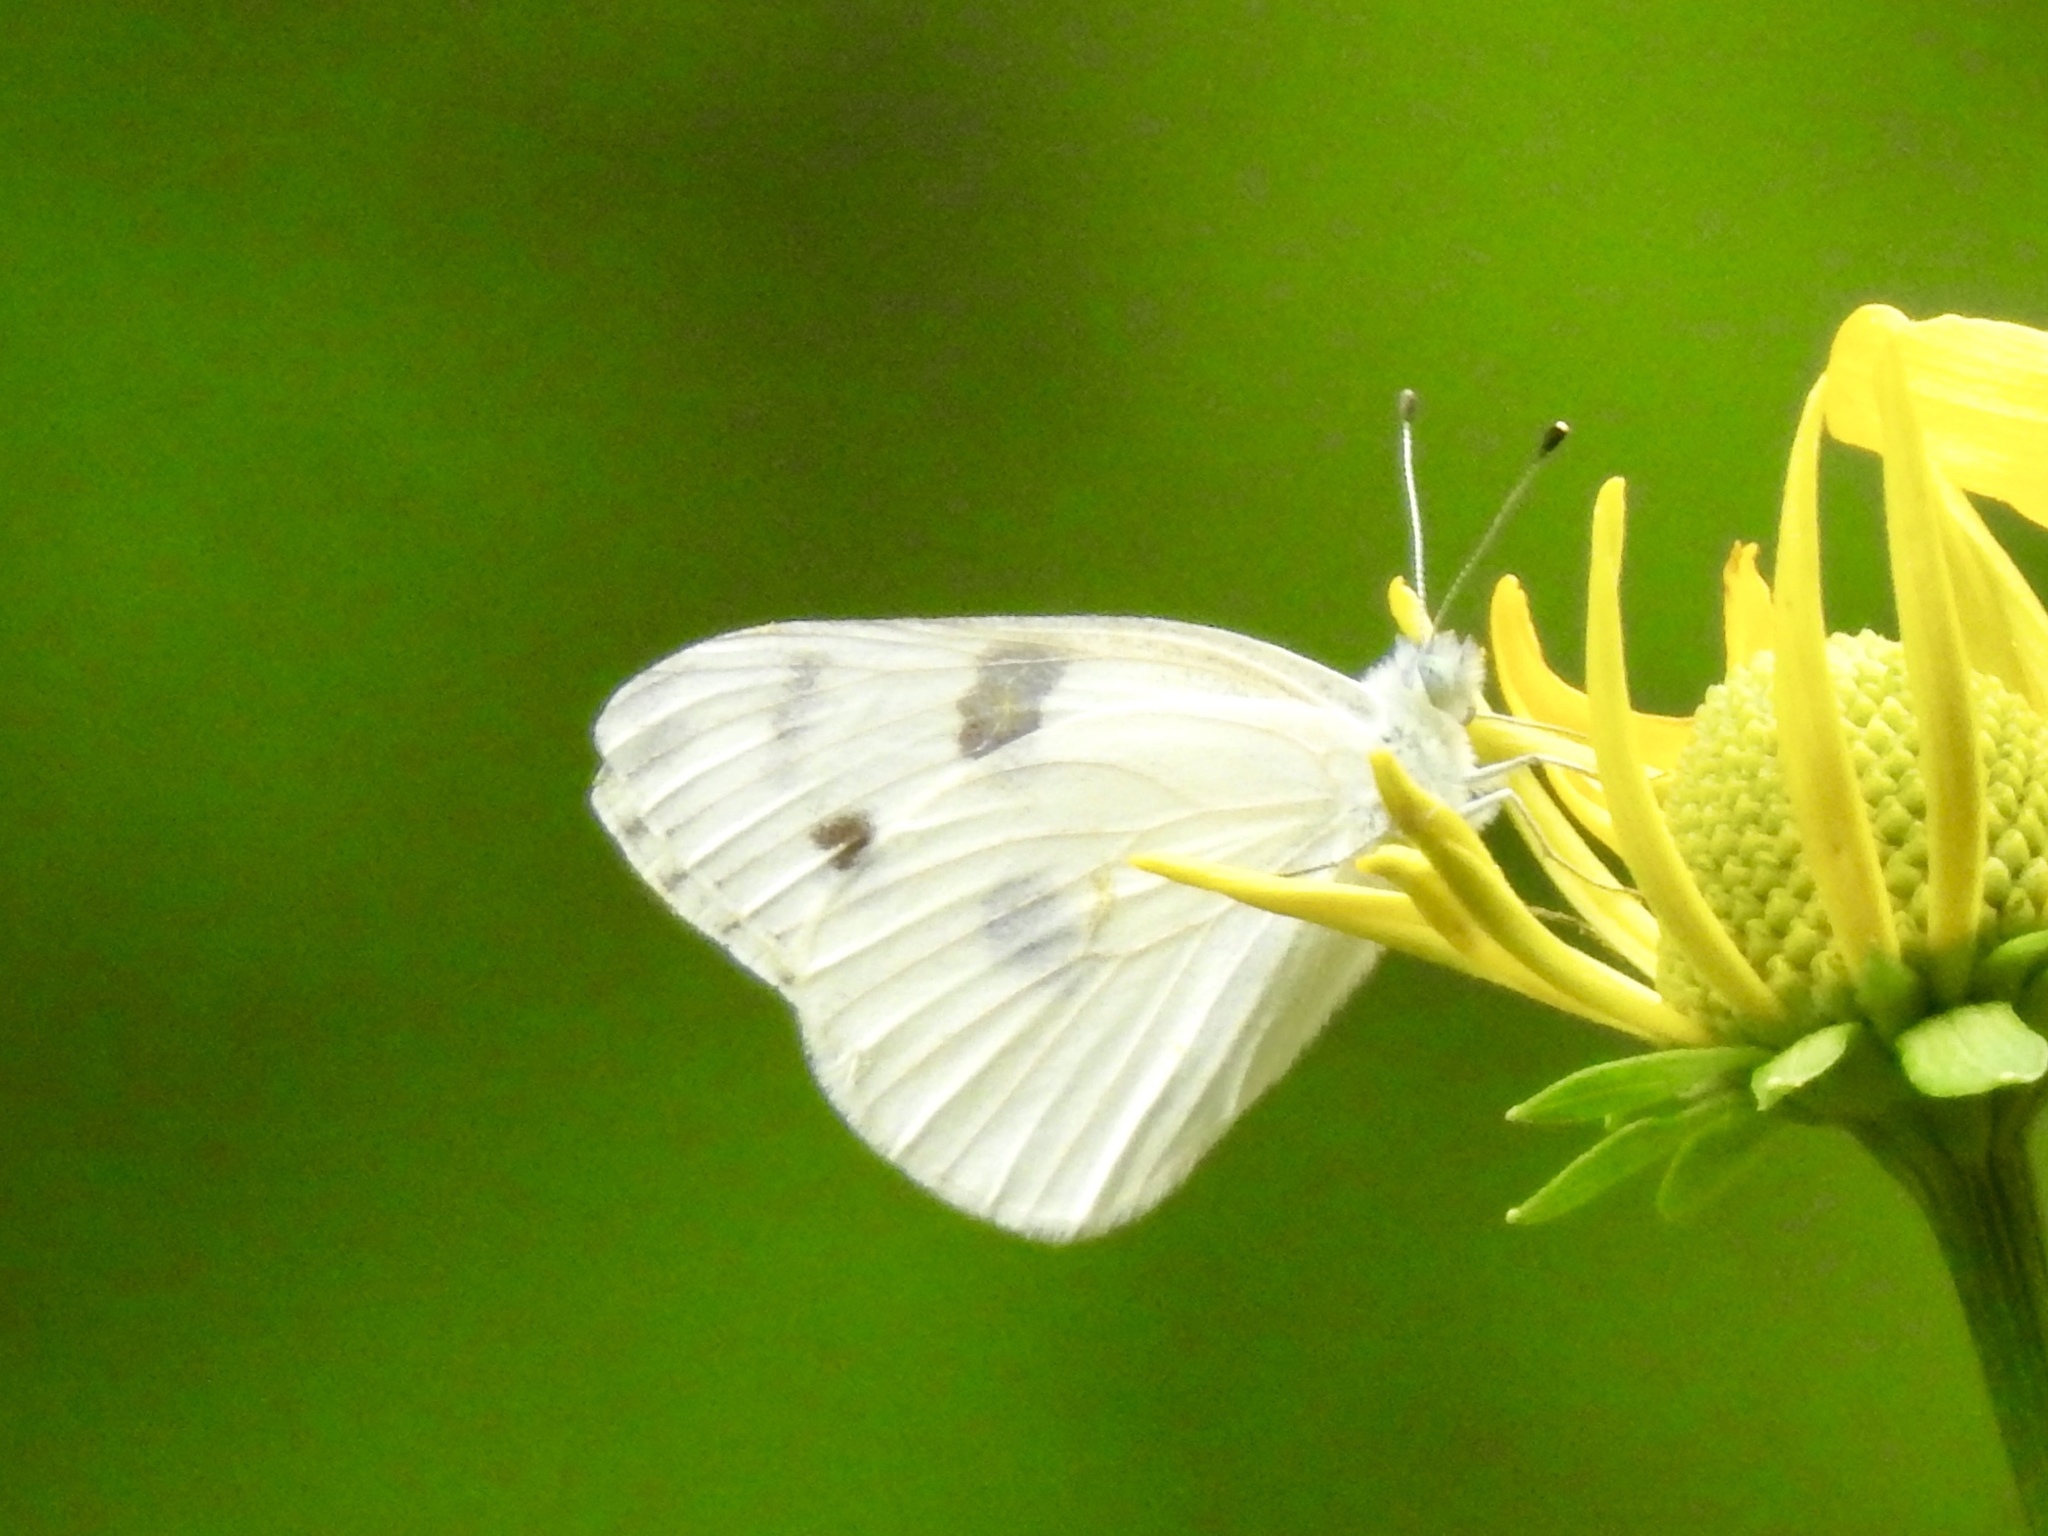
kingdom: Animalia
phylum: Arthropoda
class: Insecta
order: Lepidoptera
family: Pieridae
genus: Pontia
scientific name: Pontia protodice
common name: Checkered white
